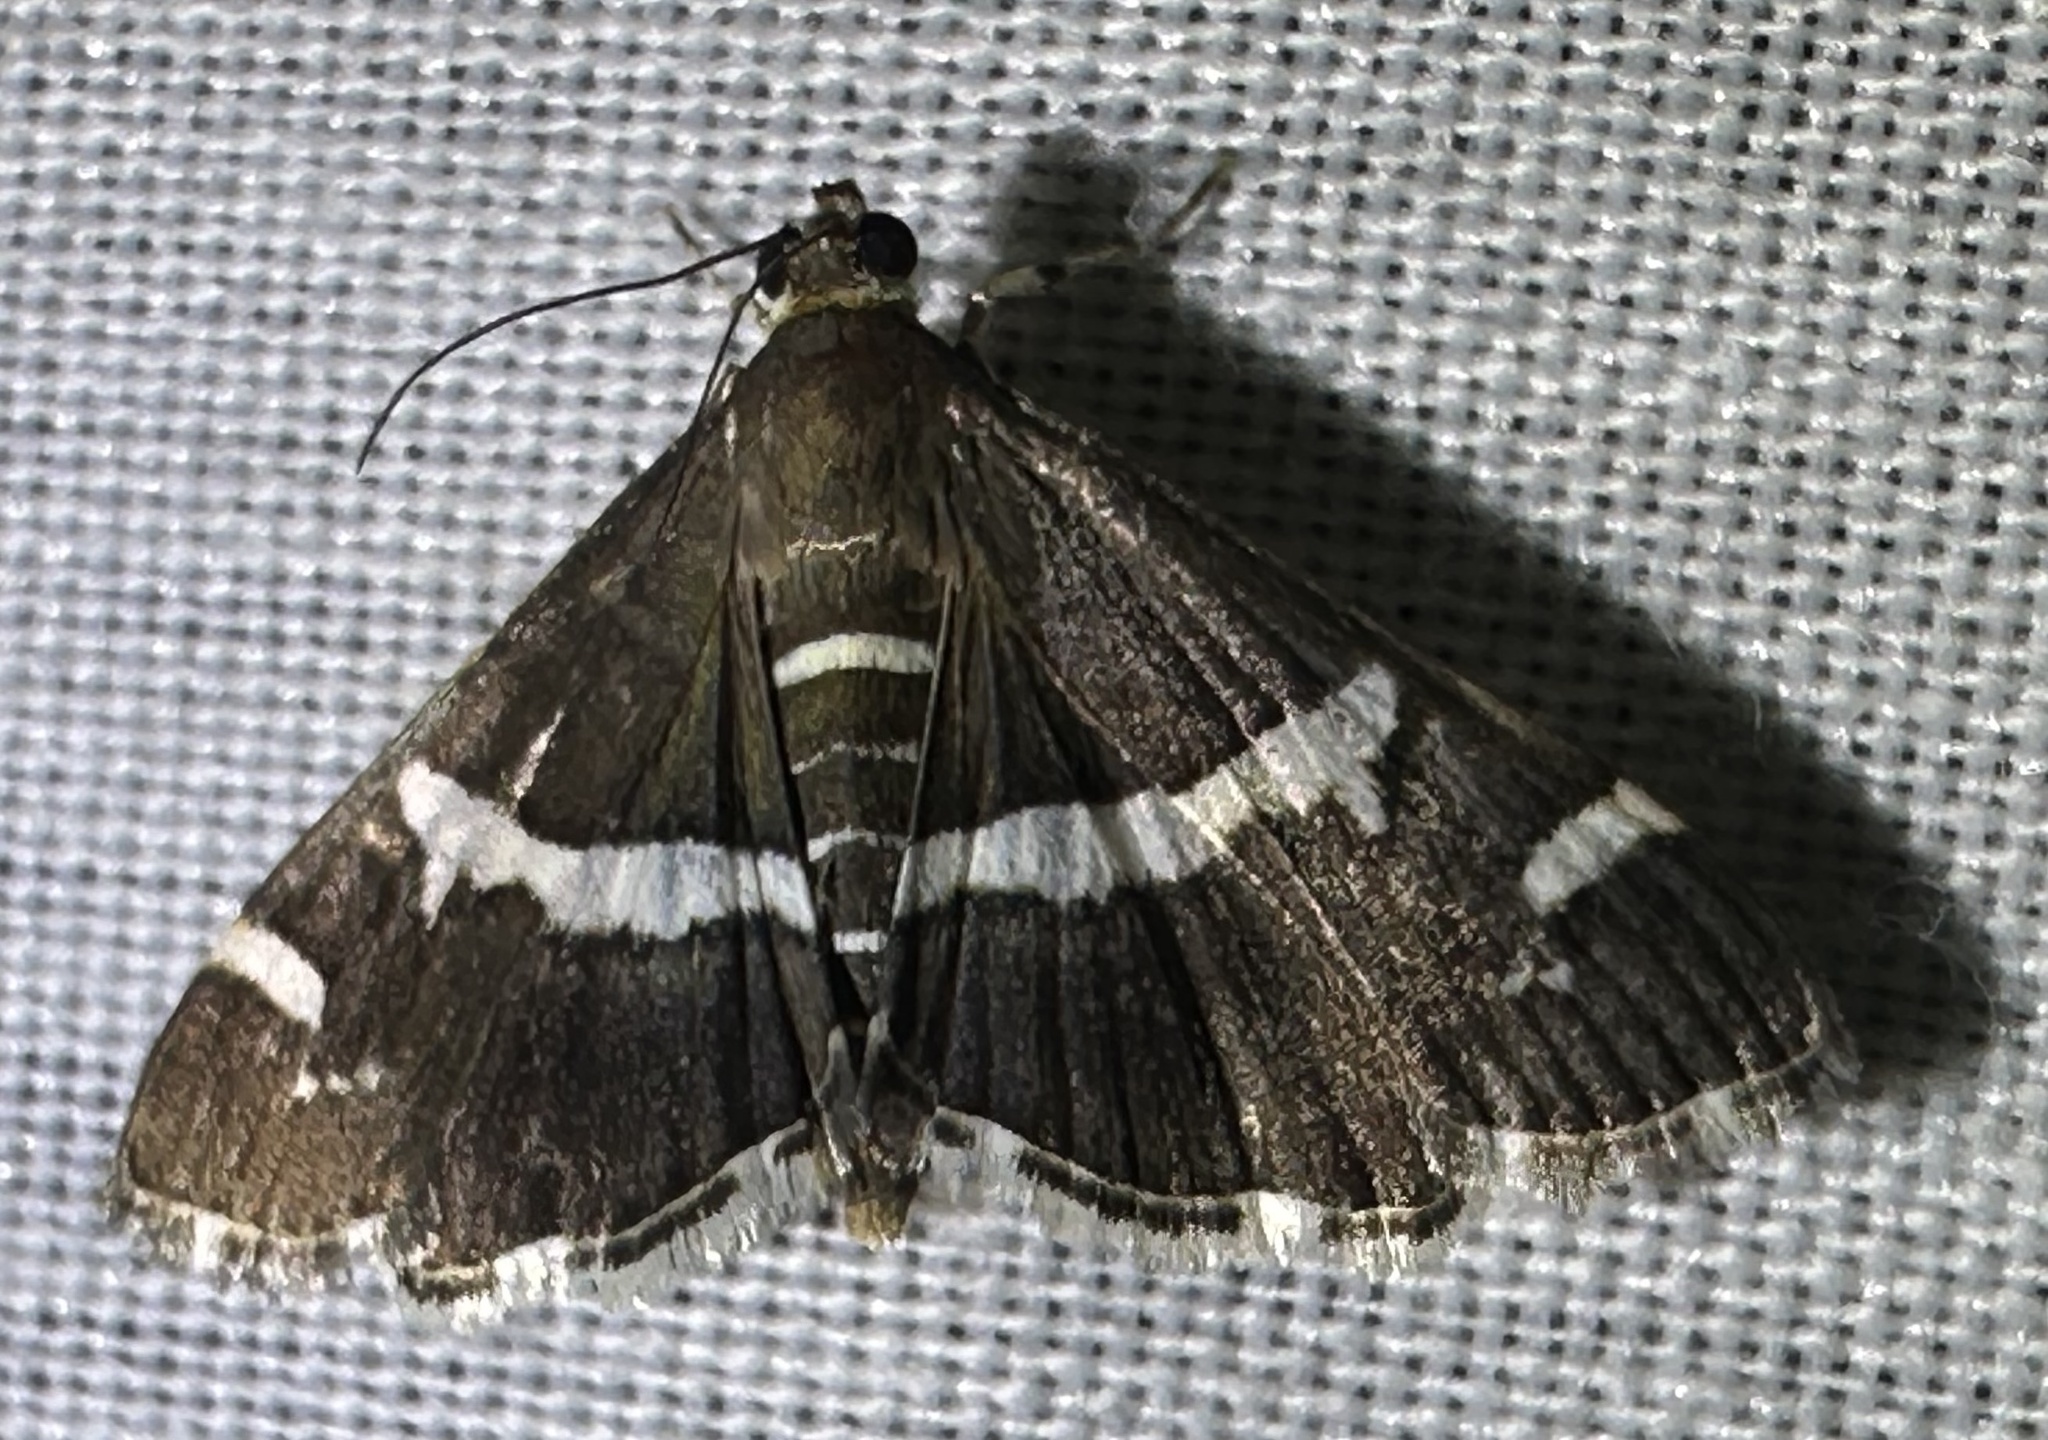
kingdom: Animalia
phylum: Arthropoda
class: Insecta
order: Lepidoptera
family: Crambidae
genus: Spoladea
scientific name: Spoladea recurvalis
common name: Beet webworm moth
